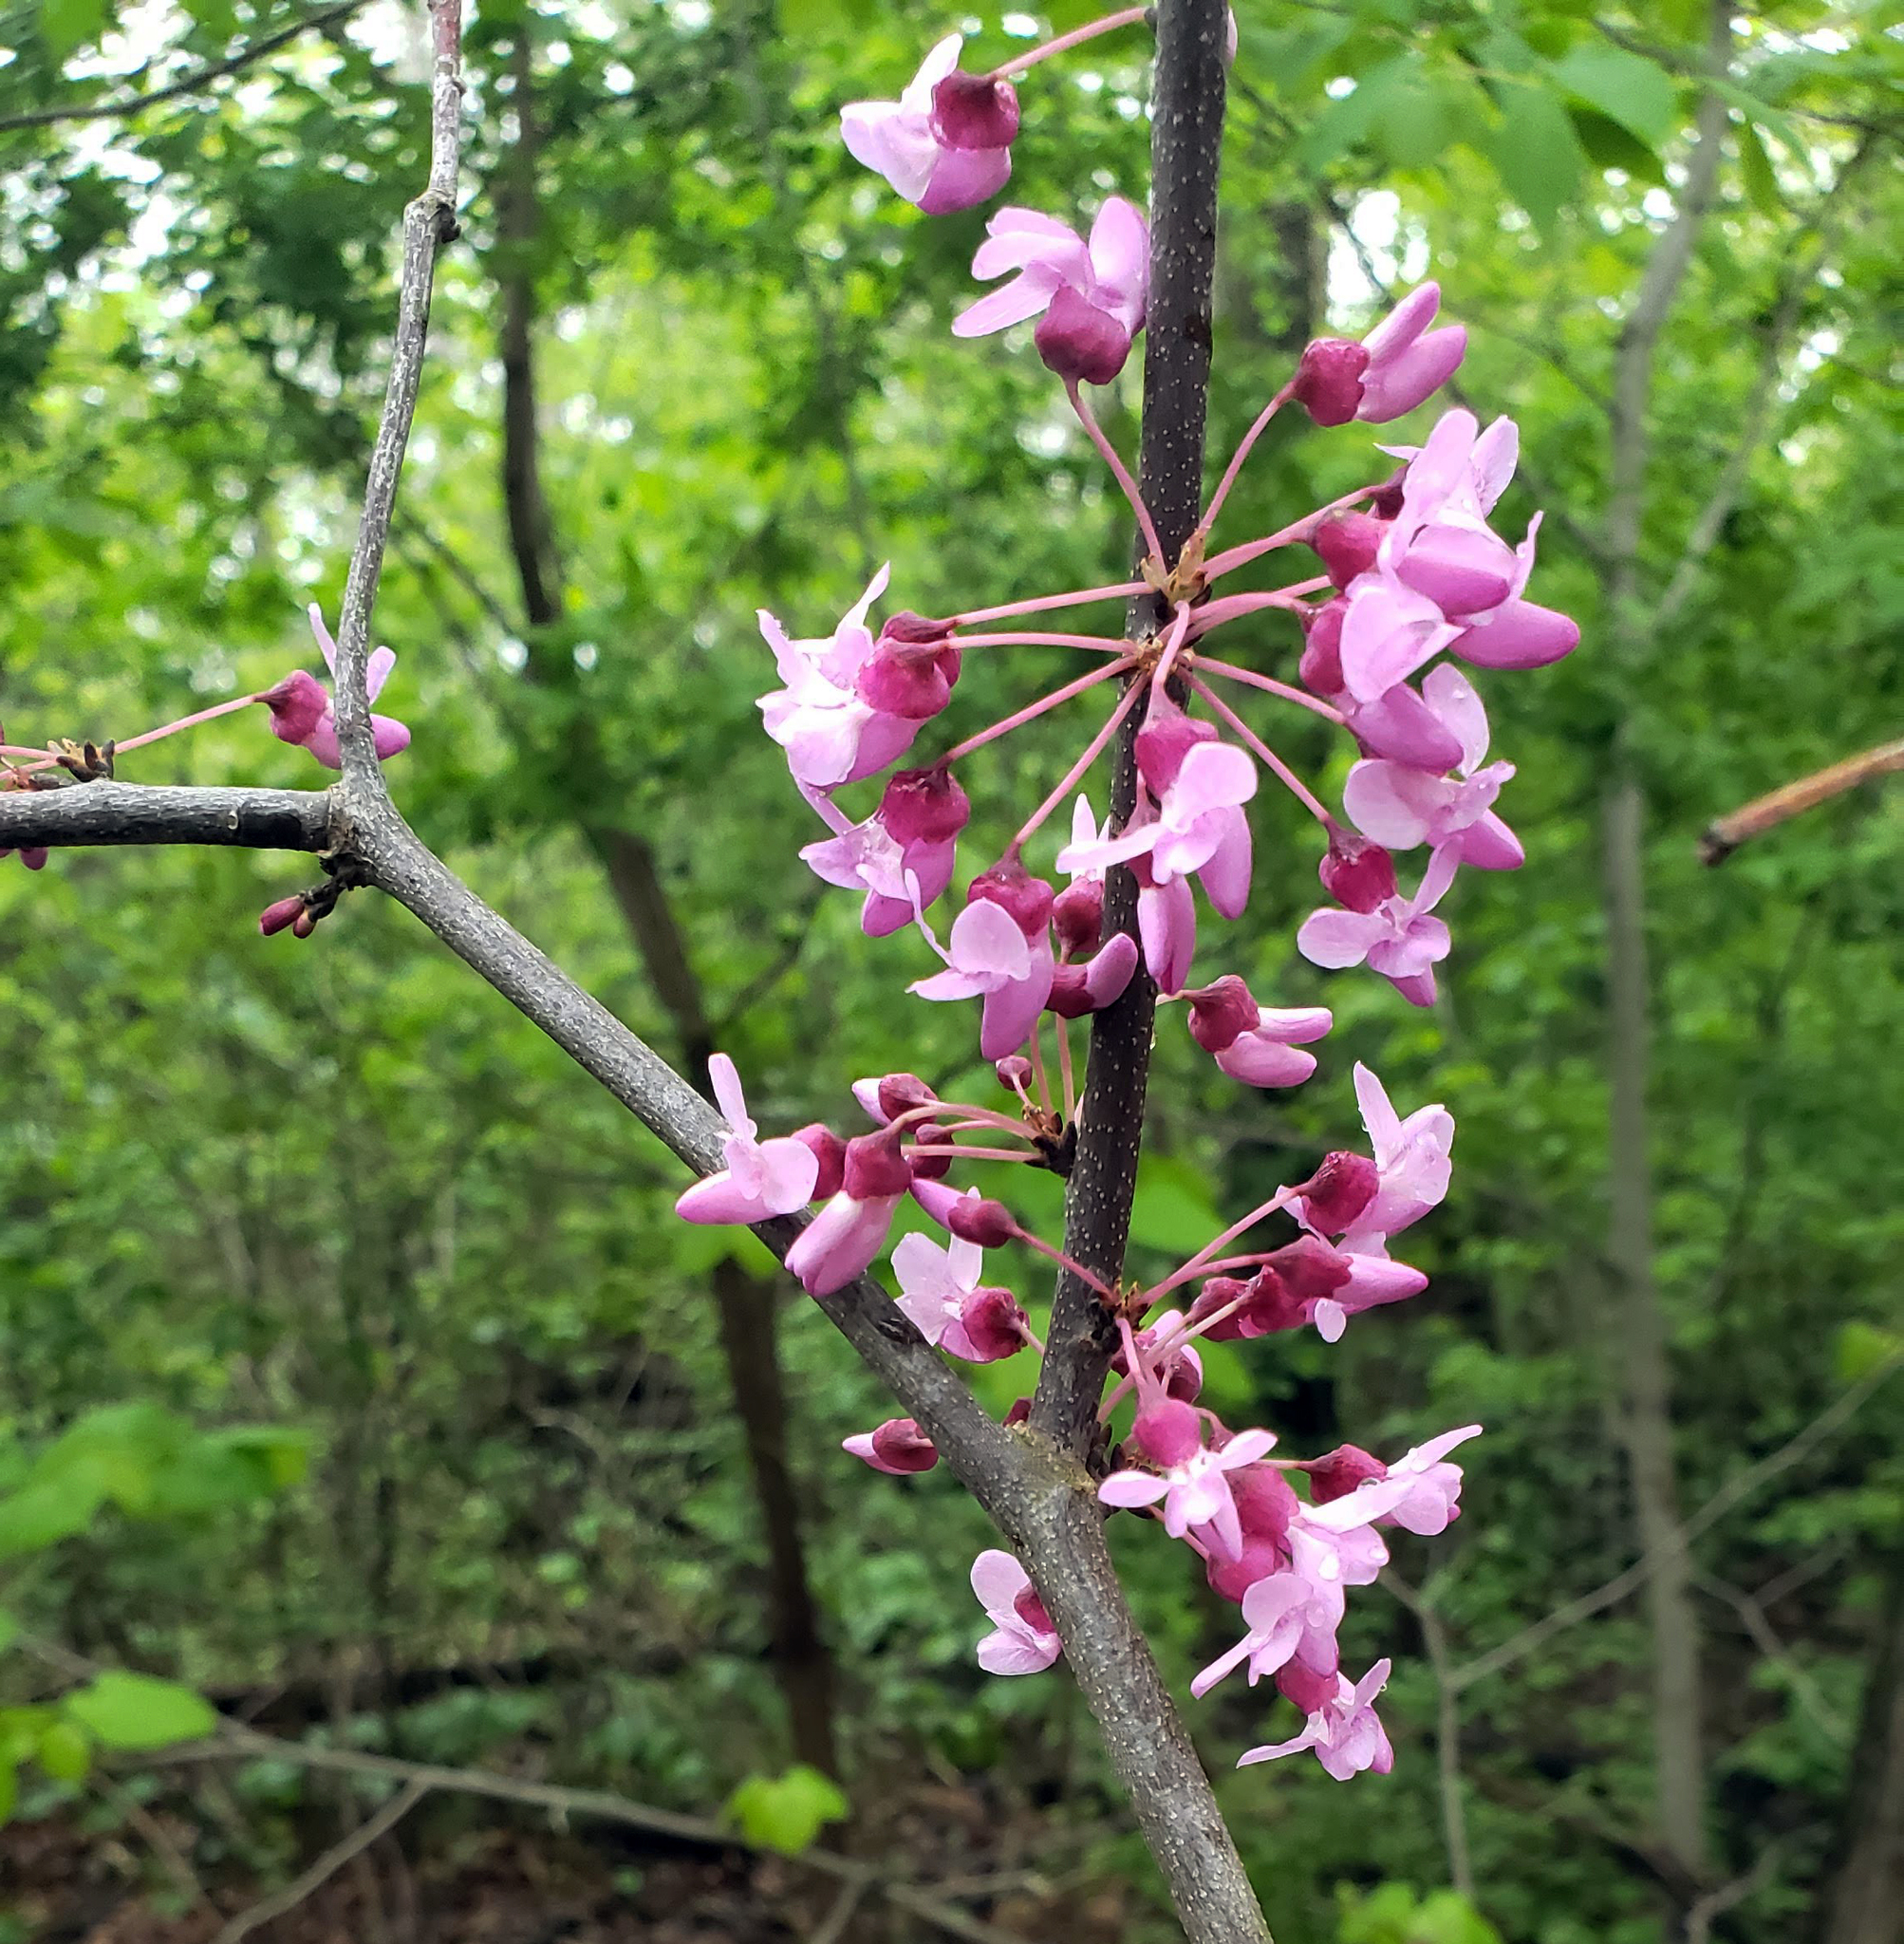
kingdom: Plantae
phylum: Tracheophyta
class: Magnoliopsida
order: Fabales
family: Fabaceae
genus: Cercis
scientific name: Cercis canadensis
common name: Eastern redbud
